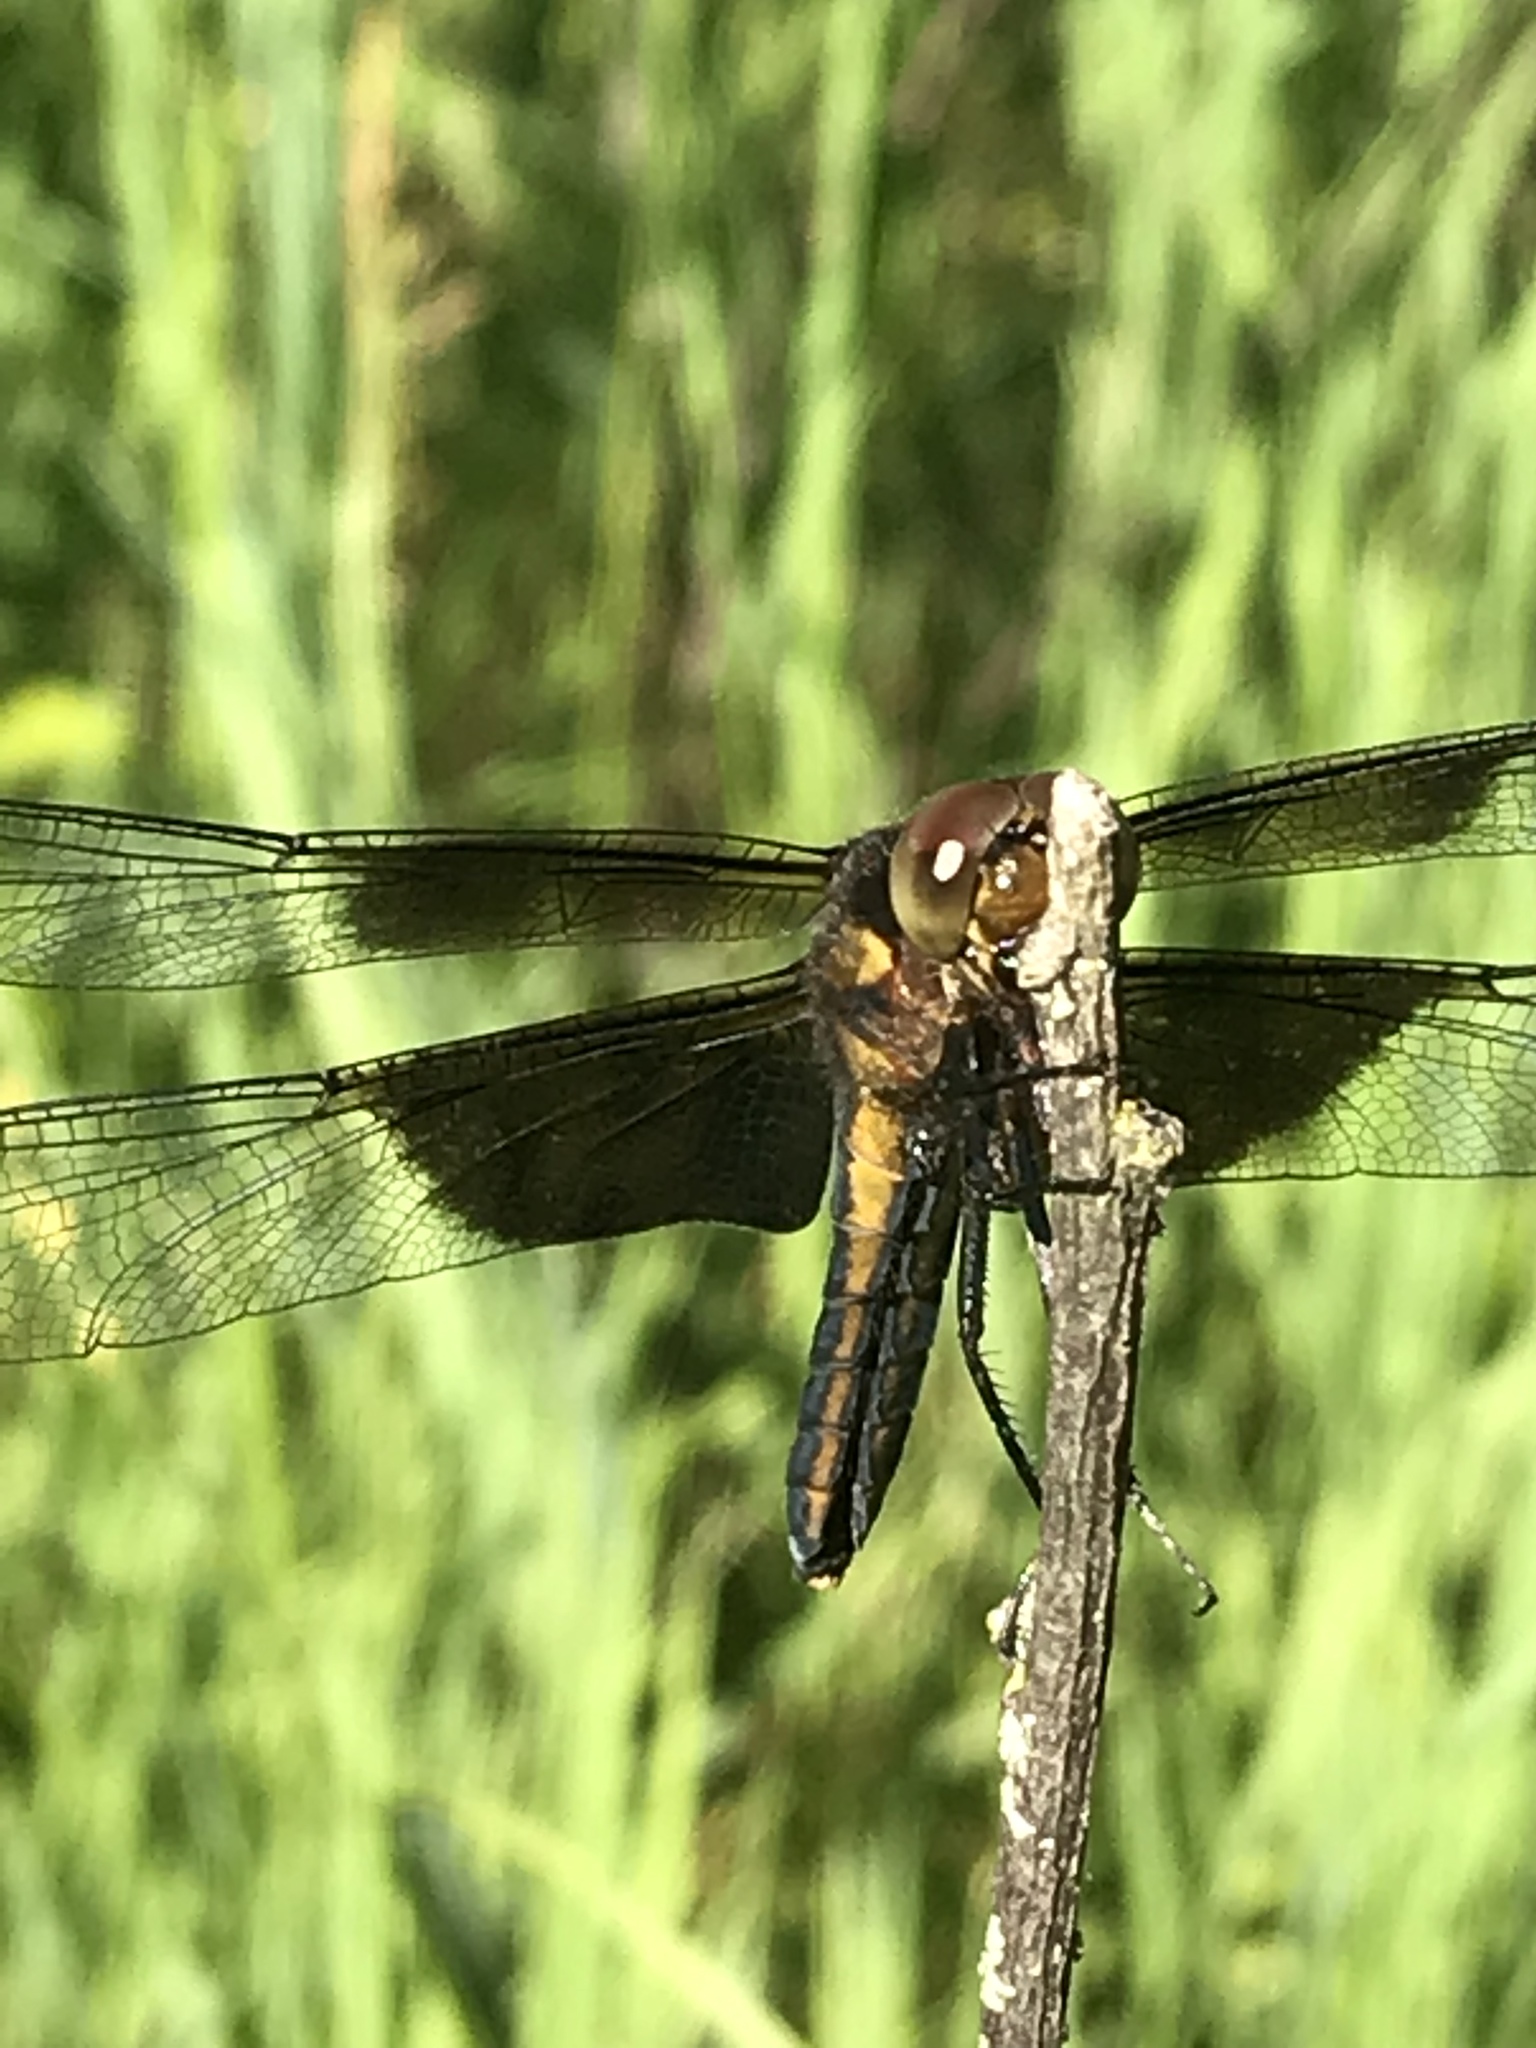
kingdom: Animalia
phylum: Arthropoda
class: Insecta
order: Odonata
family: Libellulidae
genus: Libellula
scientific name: Libellula luctuosa
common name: Widow skimmer
